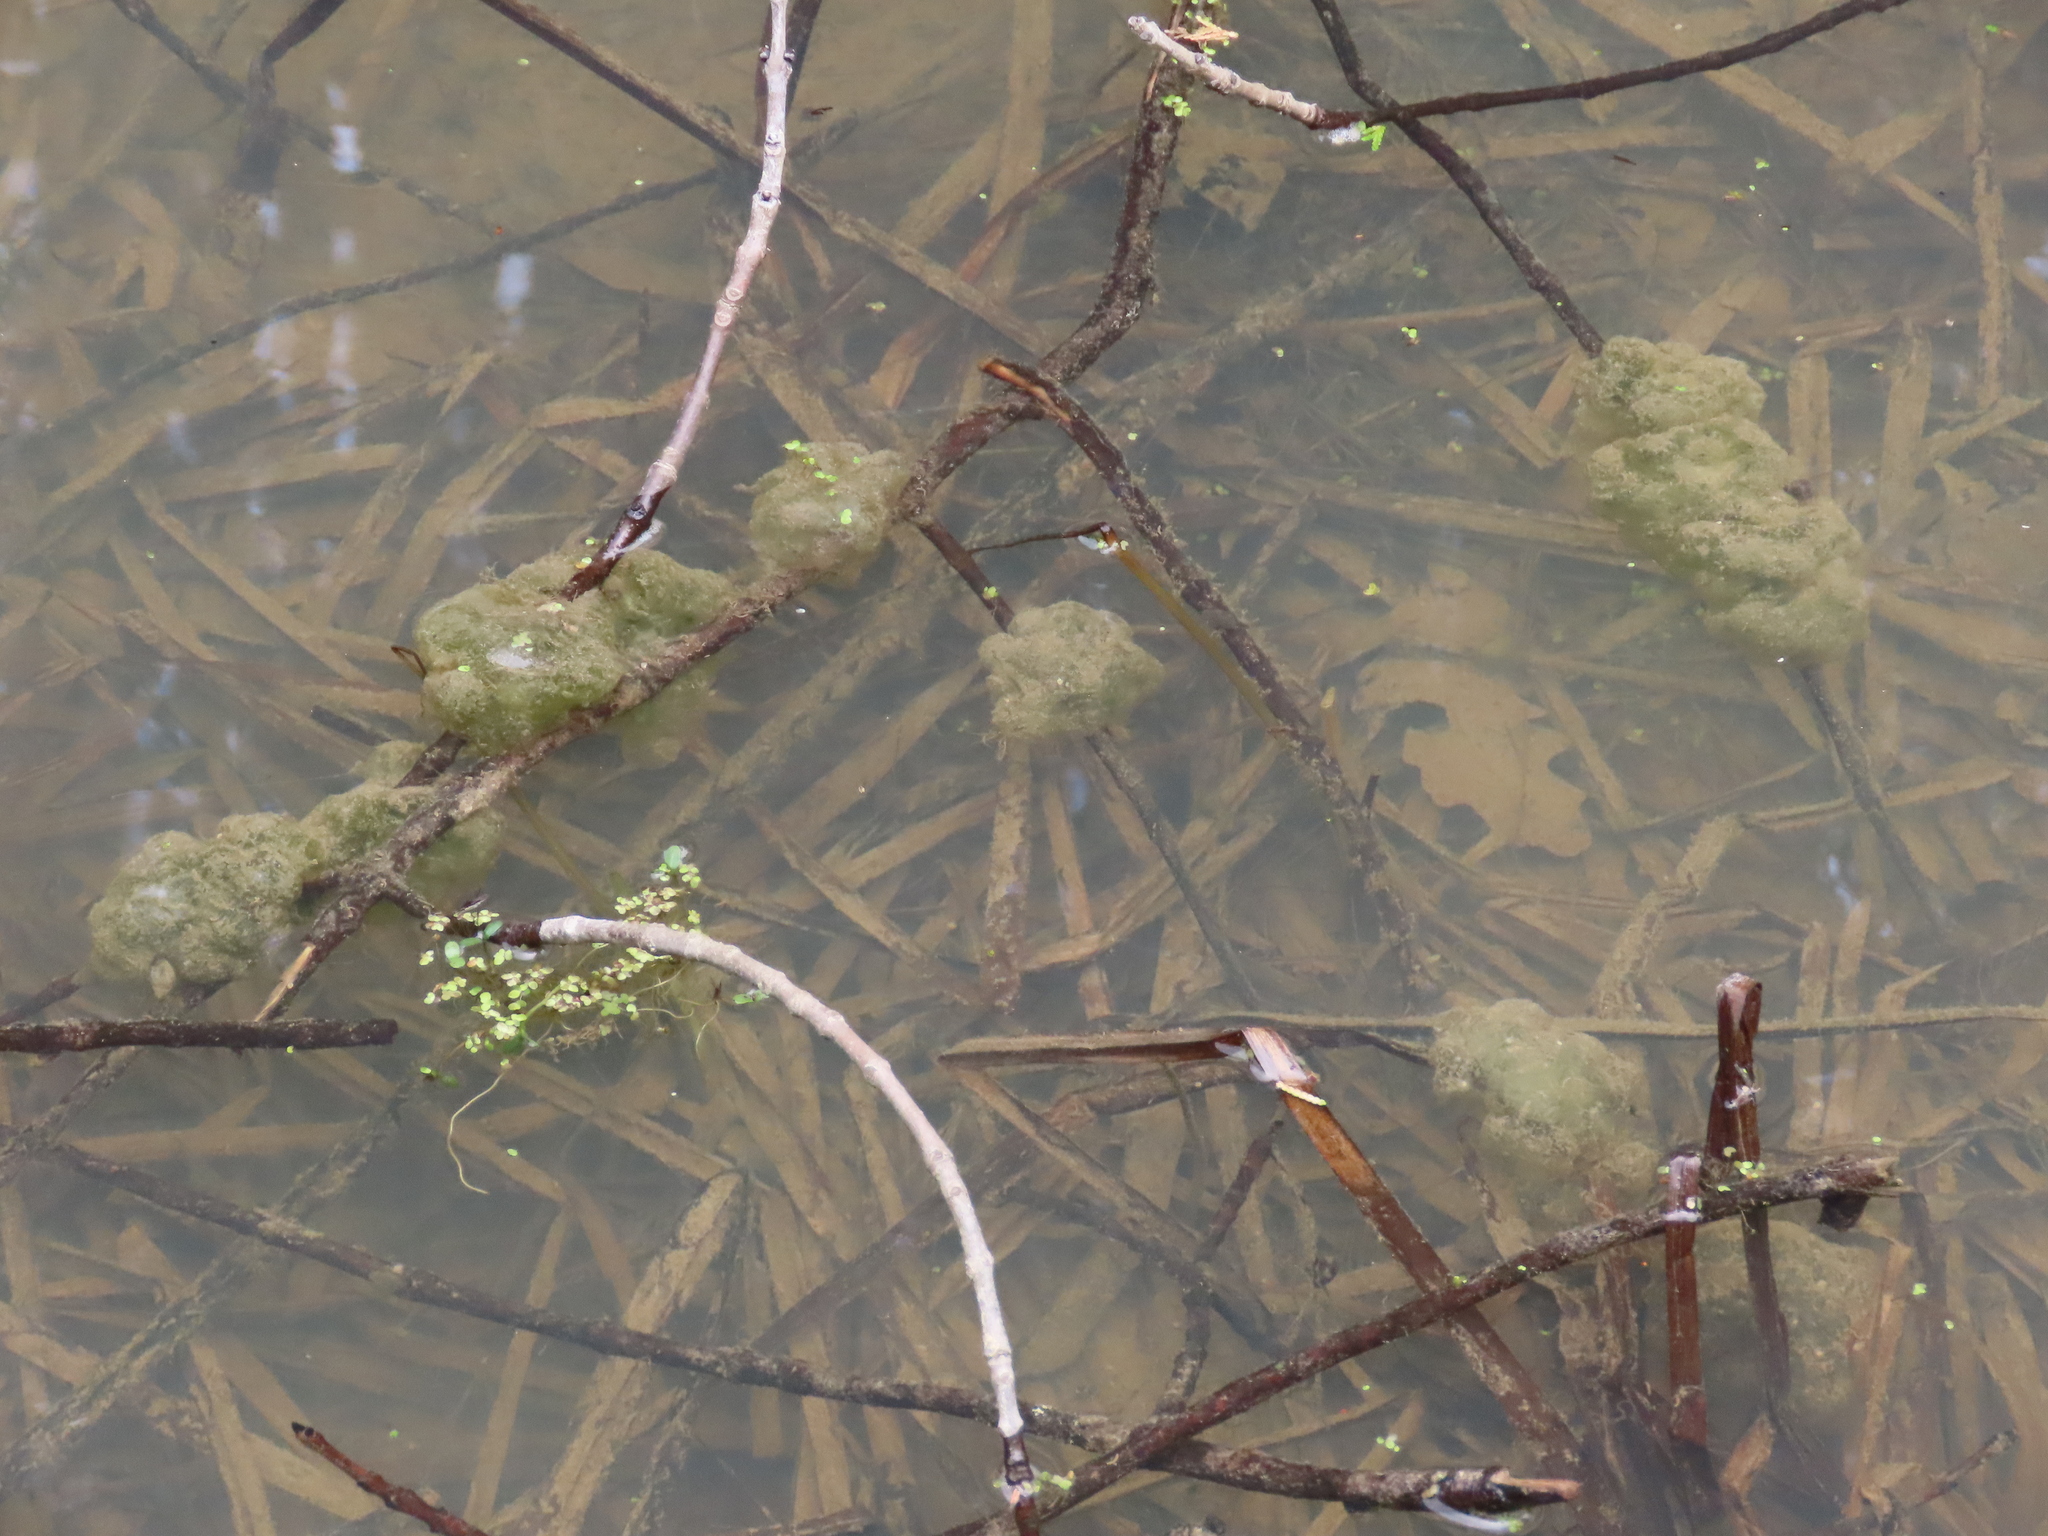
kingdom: Animalia
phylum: Chordata
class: Amphibia
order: Caudata
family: Ambystomatidae
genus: Ambystoma
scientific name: Ambystoma maculatum
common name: Spotted salamander
